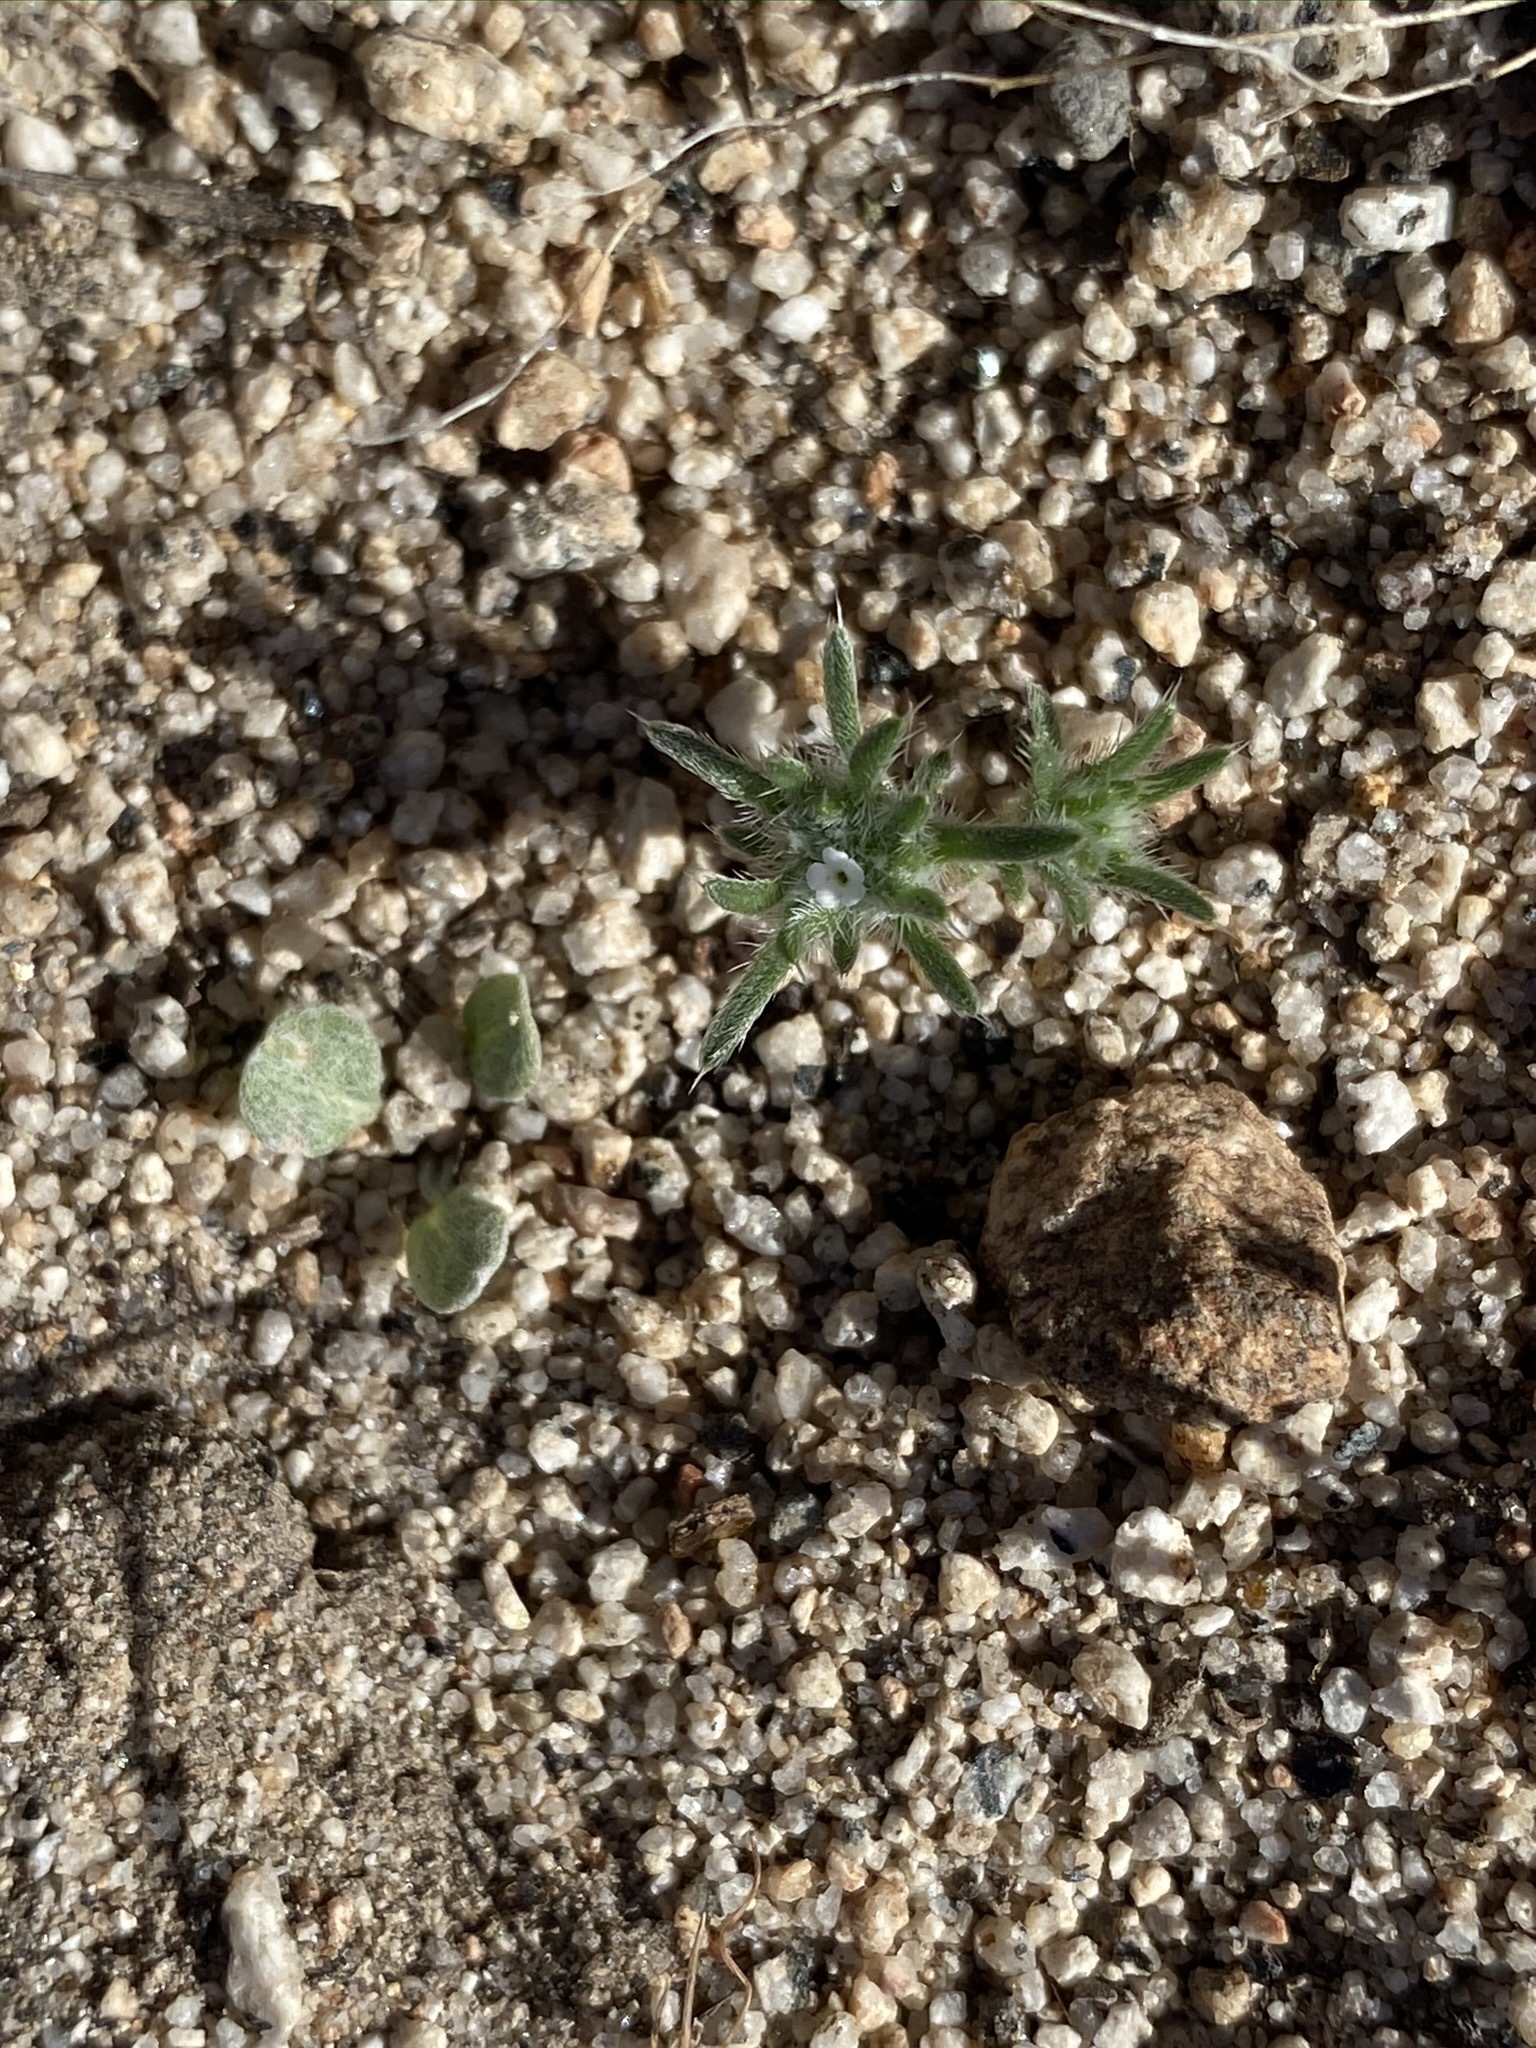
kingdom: Plantae
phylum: Tracheophyta
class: Magnoliopsida
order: Boraginales
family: Boraginaceae
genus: Greeneocharis
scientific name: Greeneocharis circumscissa
